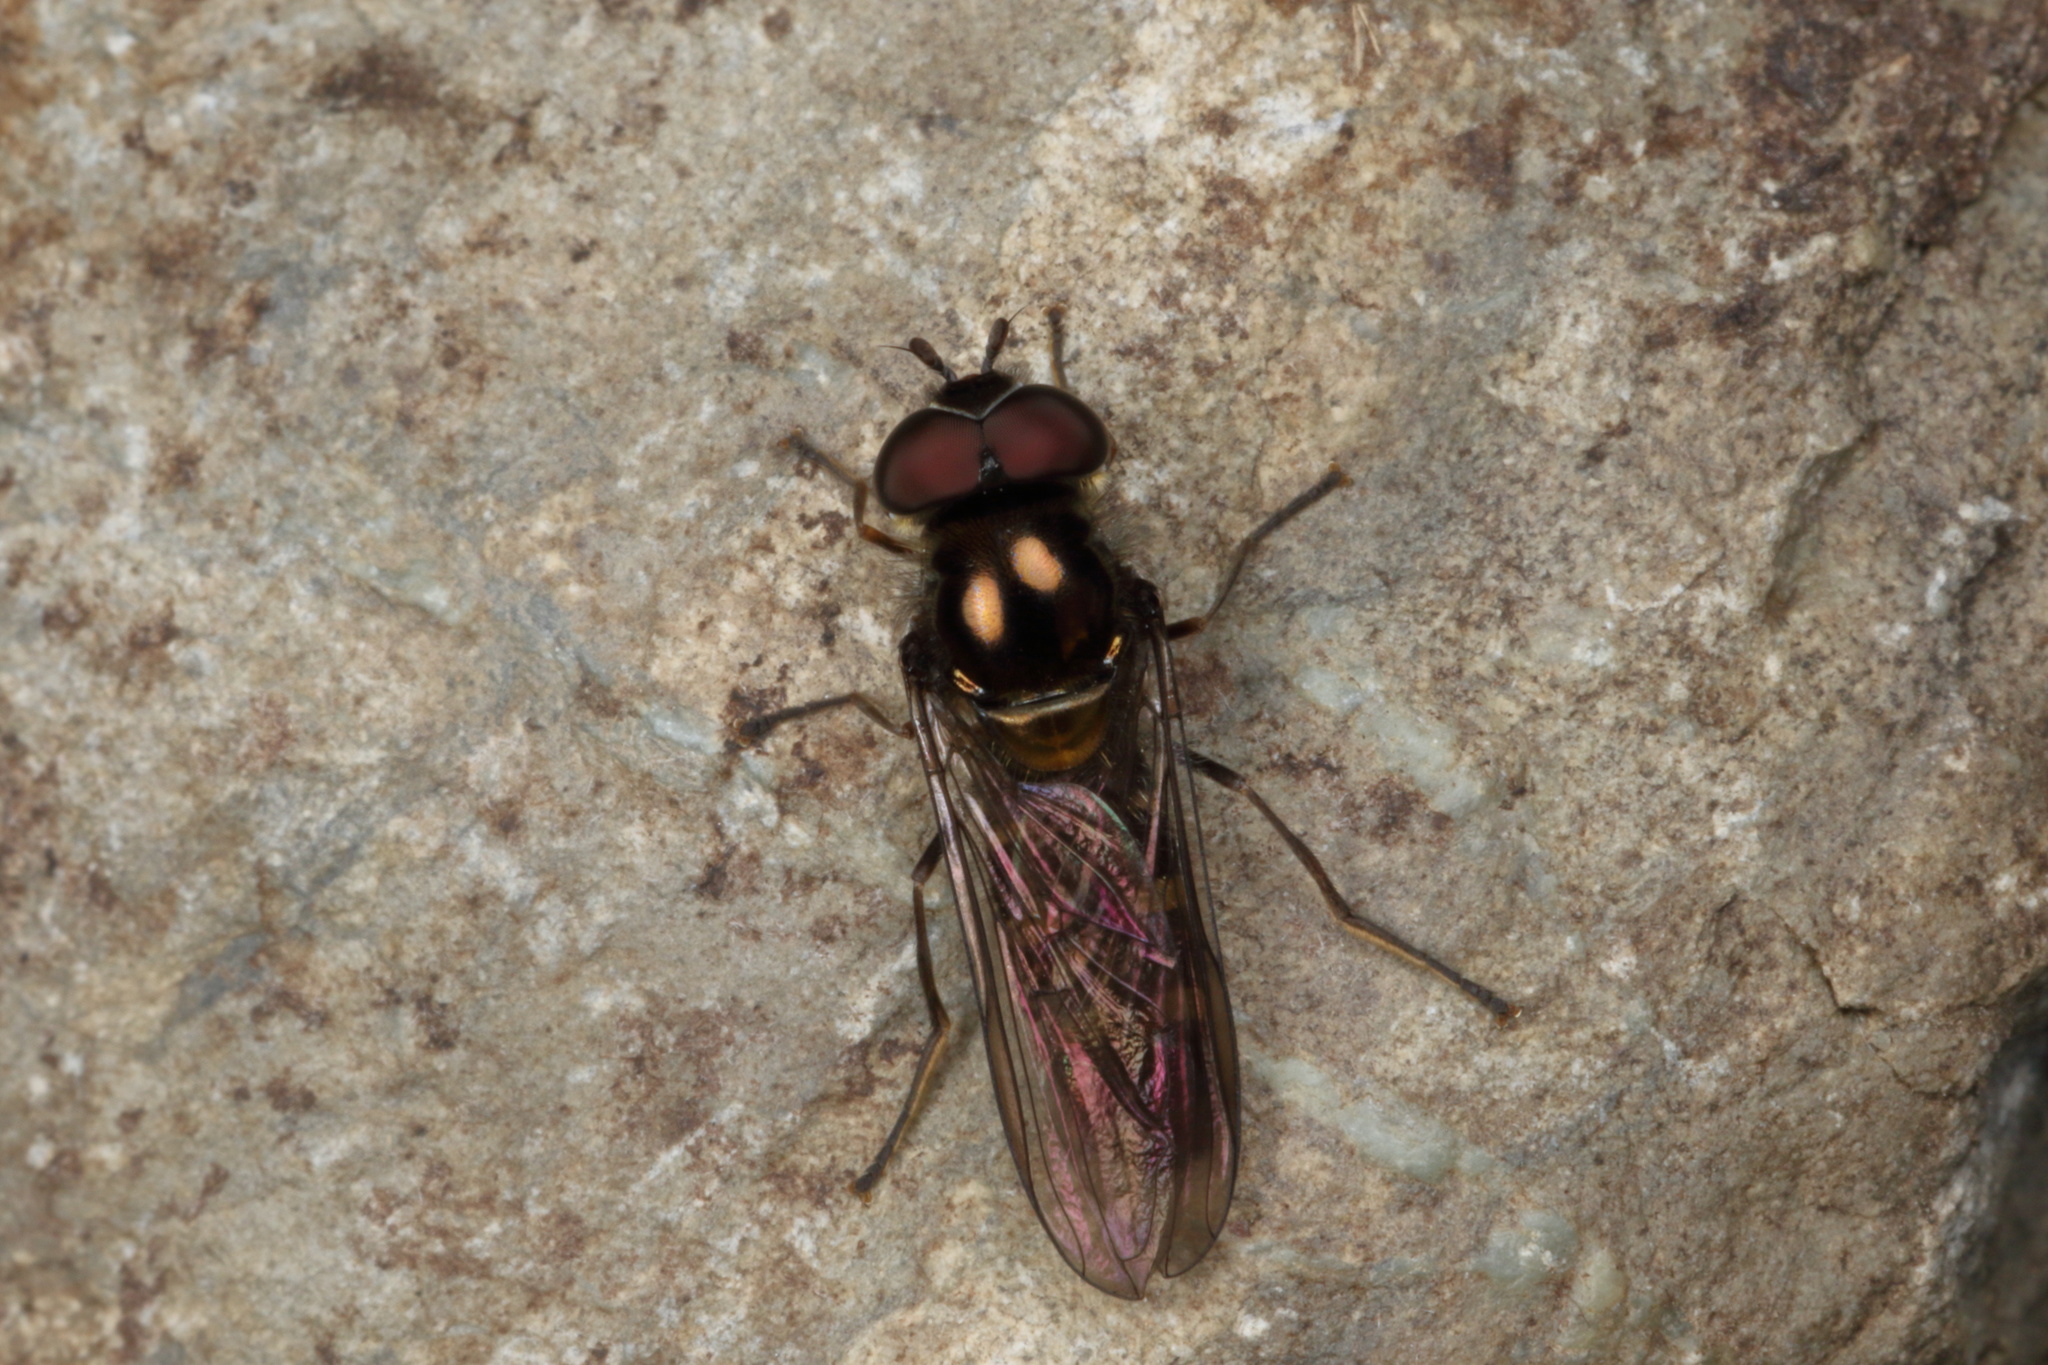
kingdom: Animalia
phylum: Arthropoda
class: Insecta
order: Diptera
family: Syrphidae
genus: Melangyna
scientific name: Melangyna novaezelandiae
